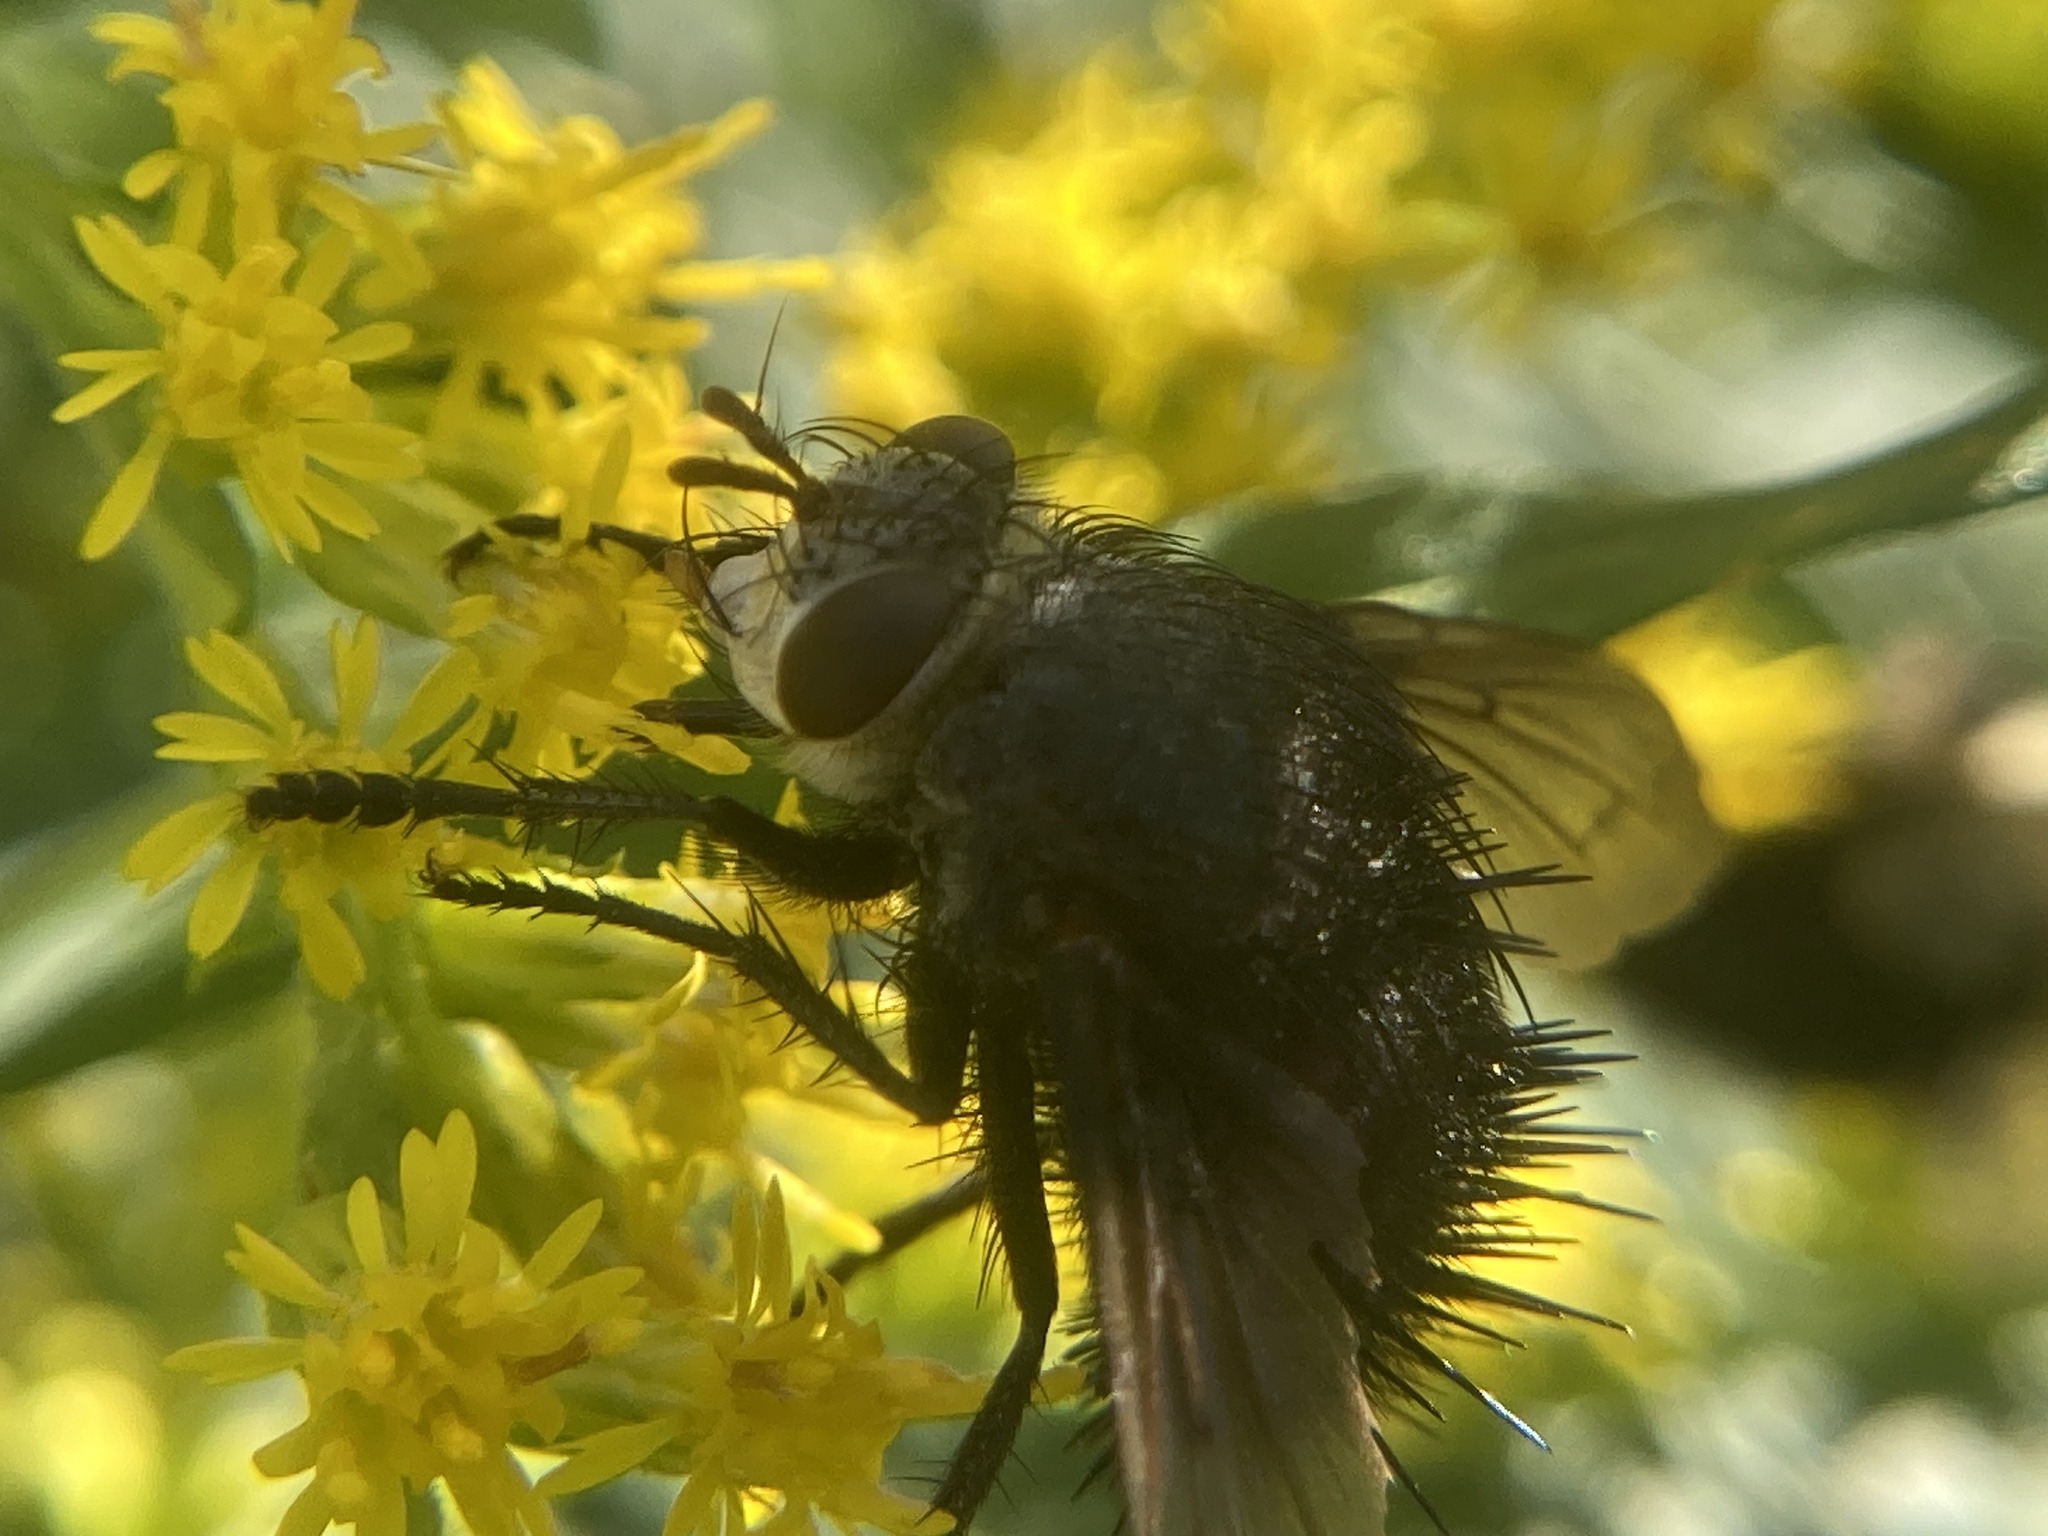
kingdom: Animalia
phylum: Arthropoda
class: Insecta
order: Diptera
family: Tachinidae
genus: Juriniopsis
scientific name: Juriniopsis adusta
